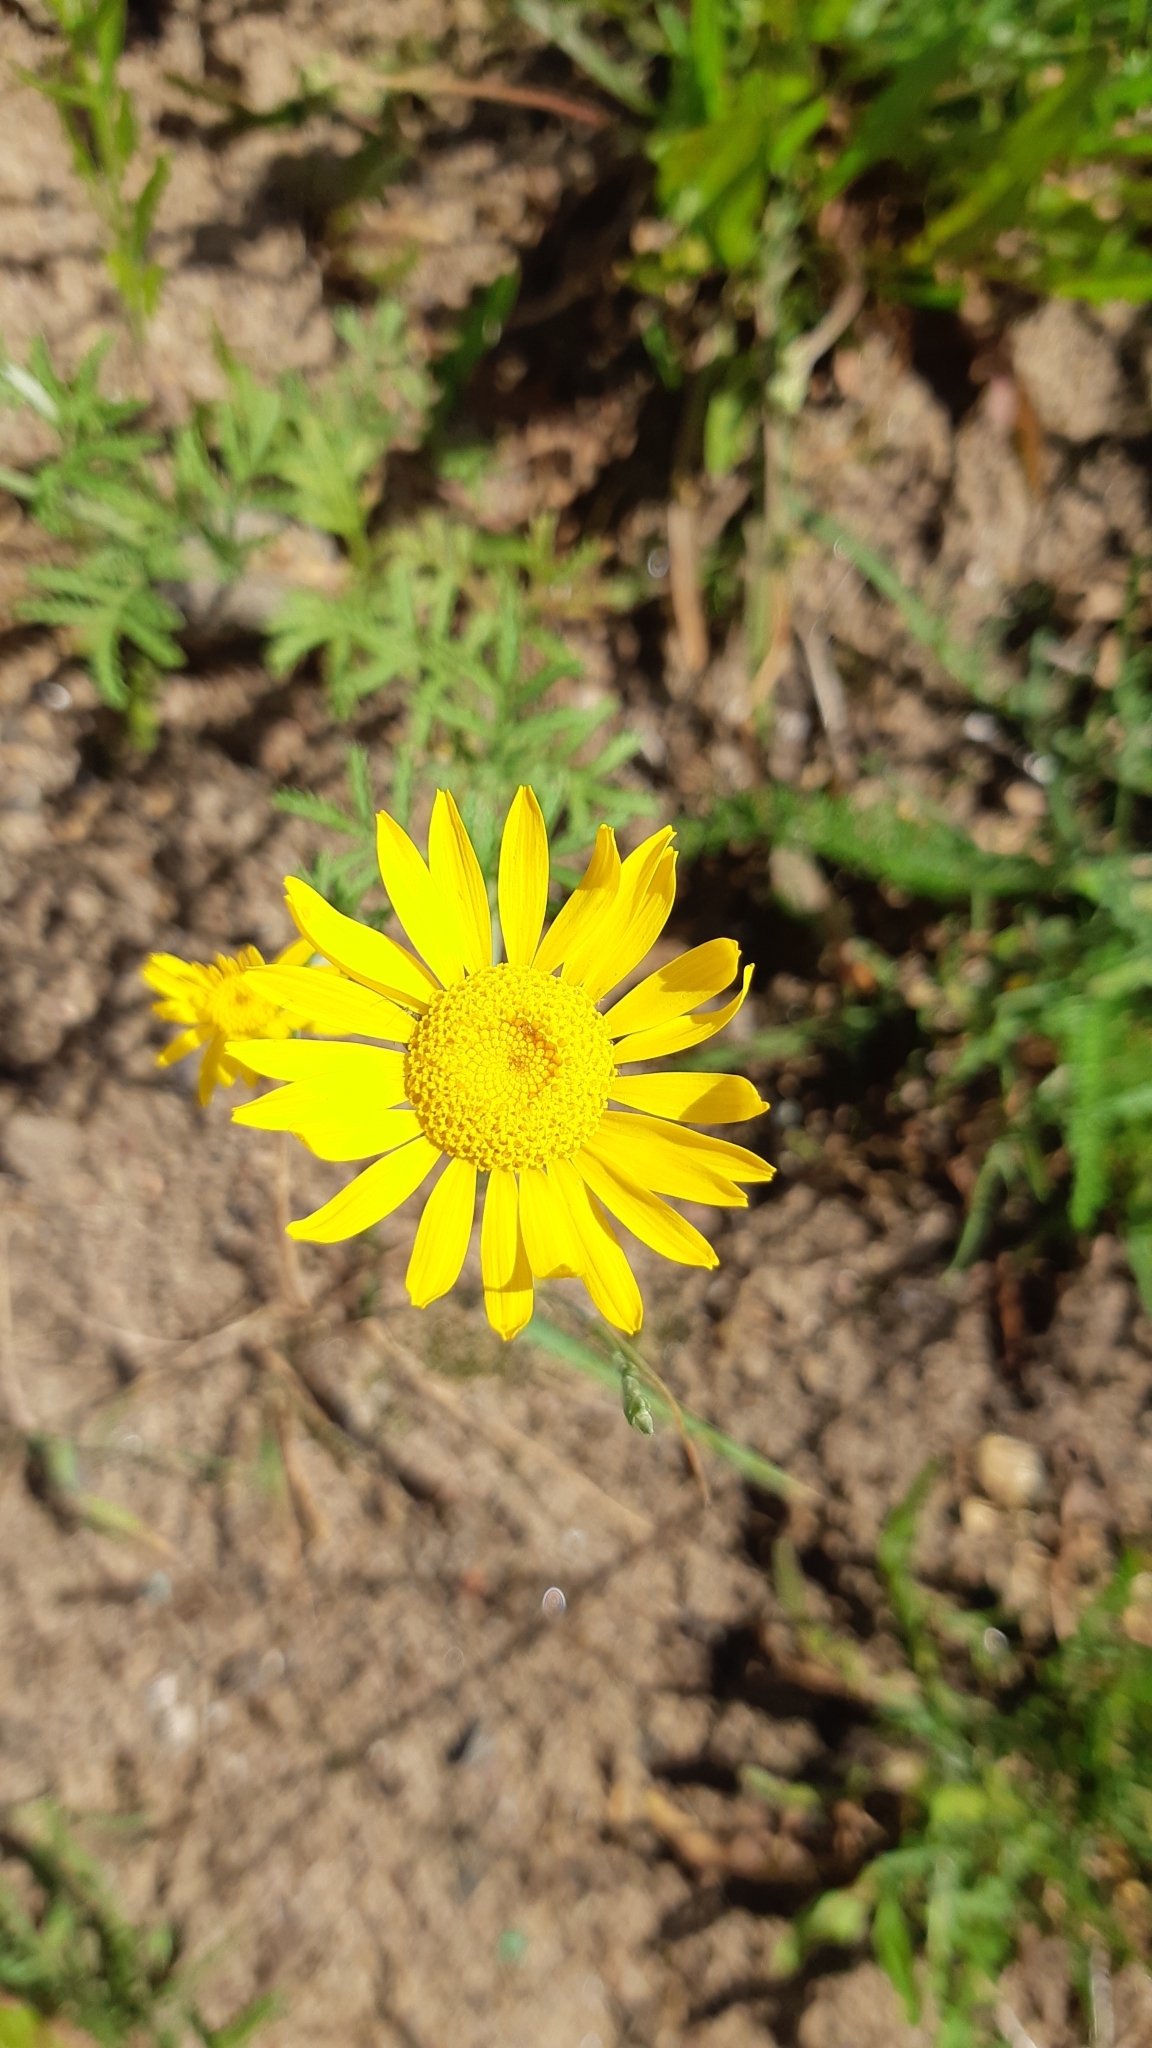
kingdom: Plantae
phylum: Tracheophyta
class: Magnoliopsida
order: Asterales
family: Asteraceae
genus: Cota
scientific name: Cota tinctoria
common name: Golden chamomile
